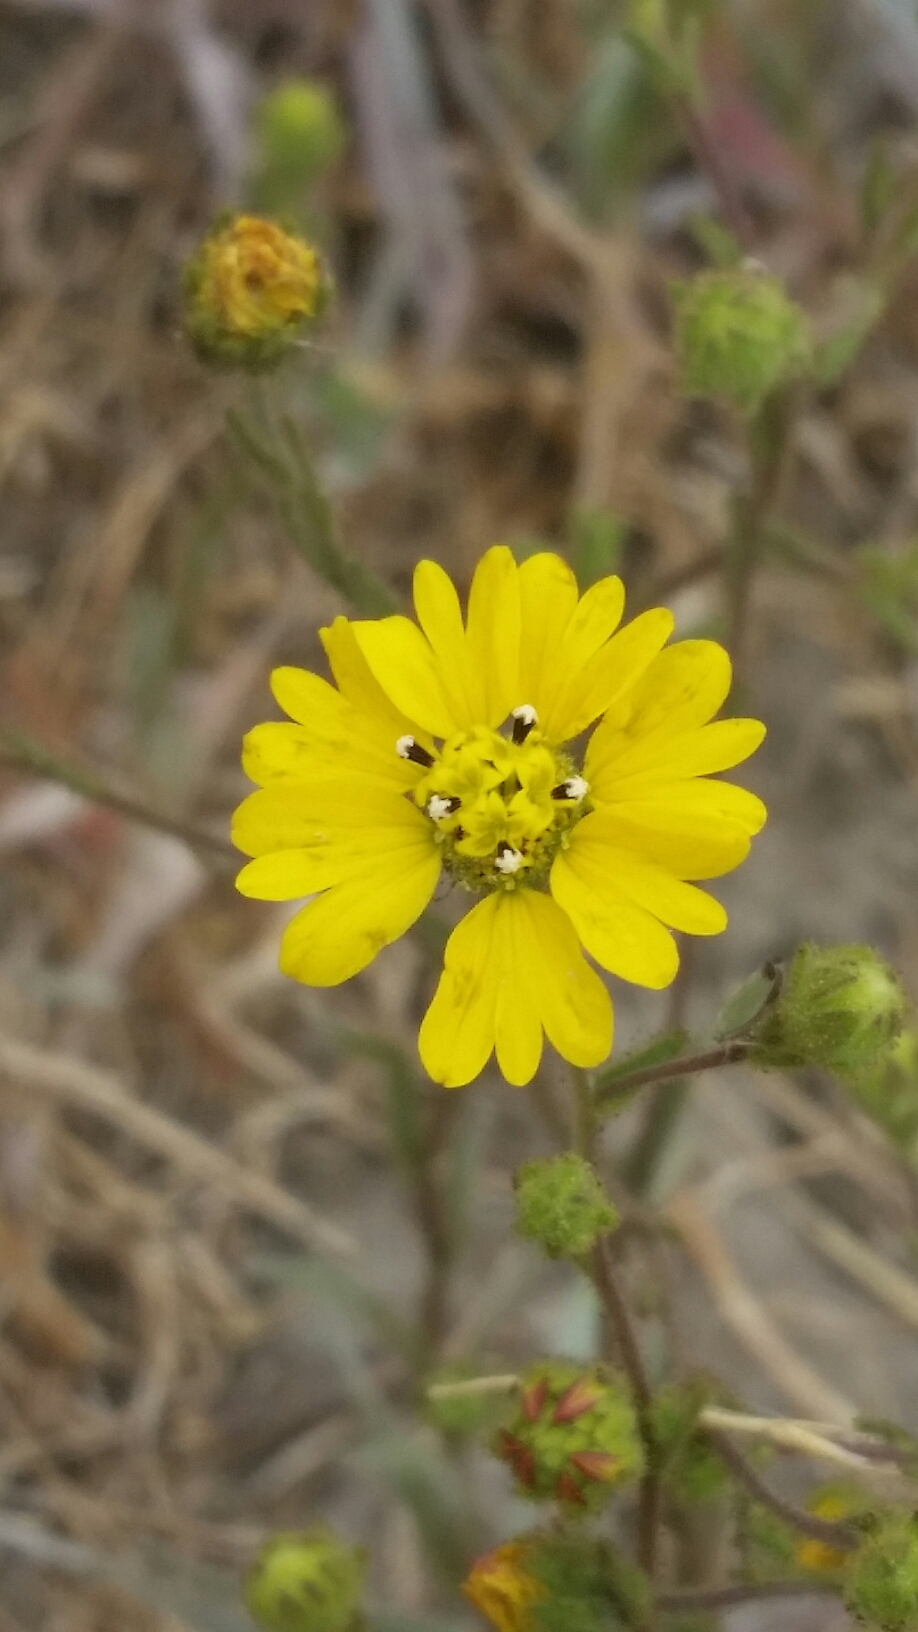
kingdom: Plantae
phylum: Tracheophyta
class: Magnoliopsida
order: Asterales
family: Asteraceae
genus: Hemizonia
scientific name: Hemizonia congesta
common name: Hayfield tarweed
